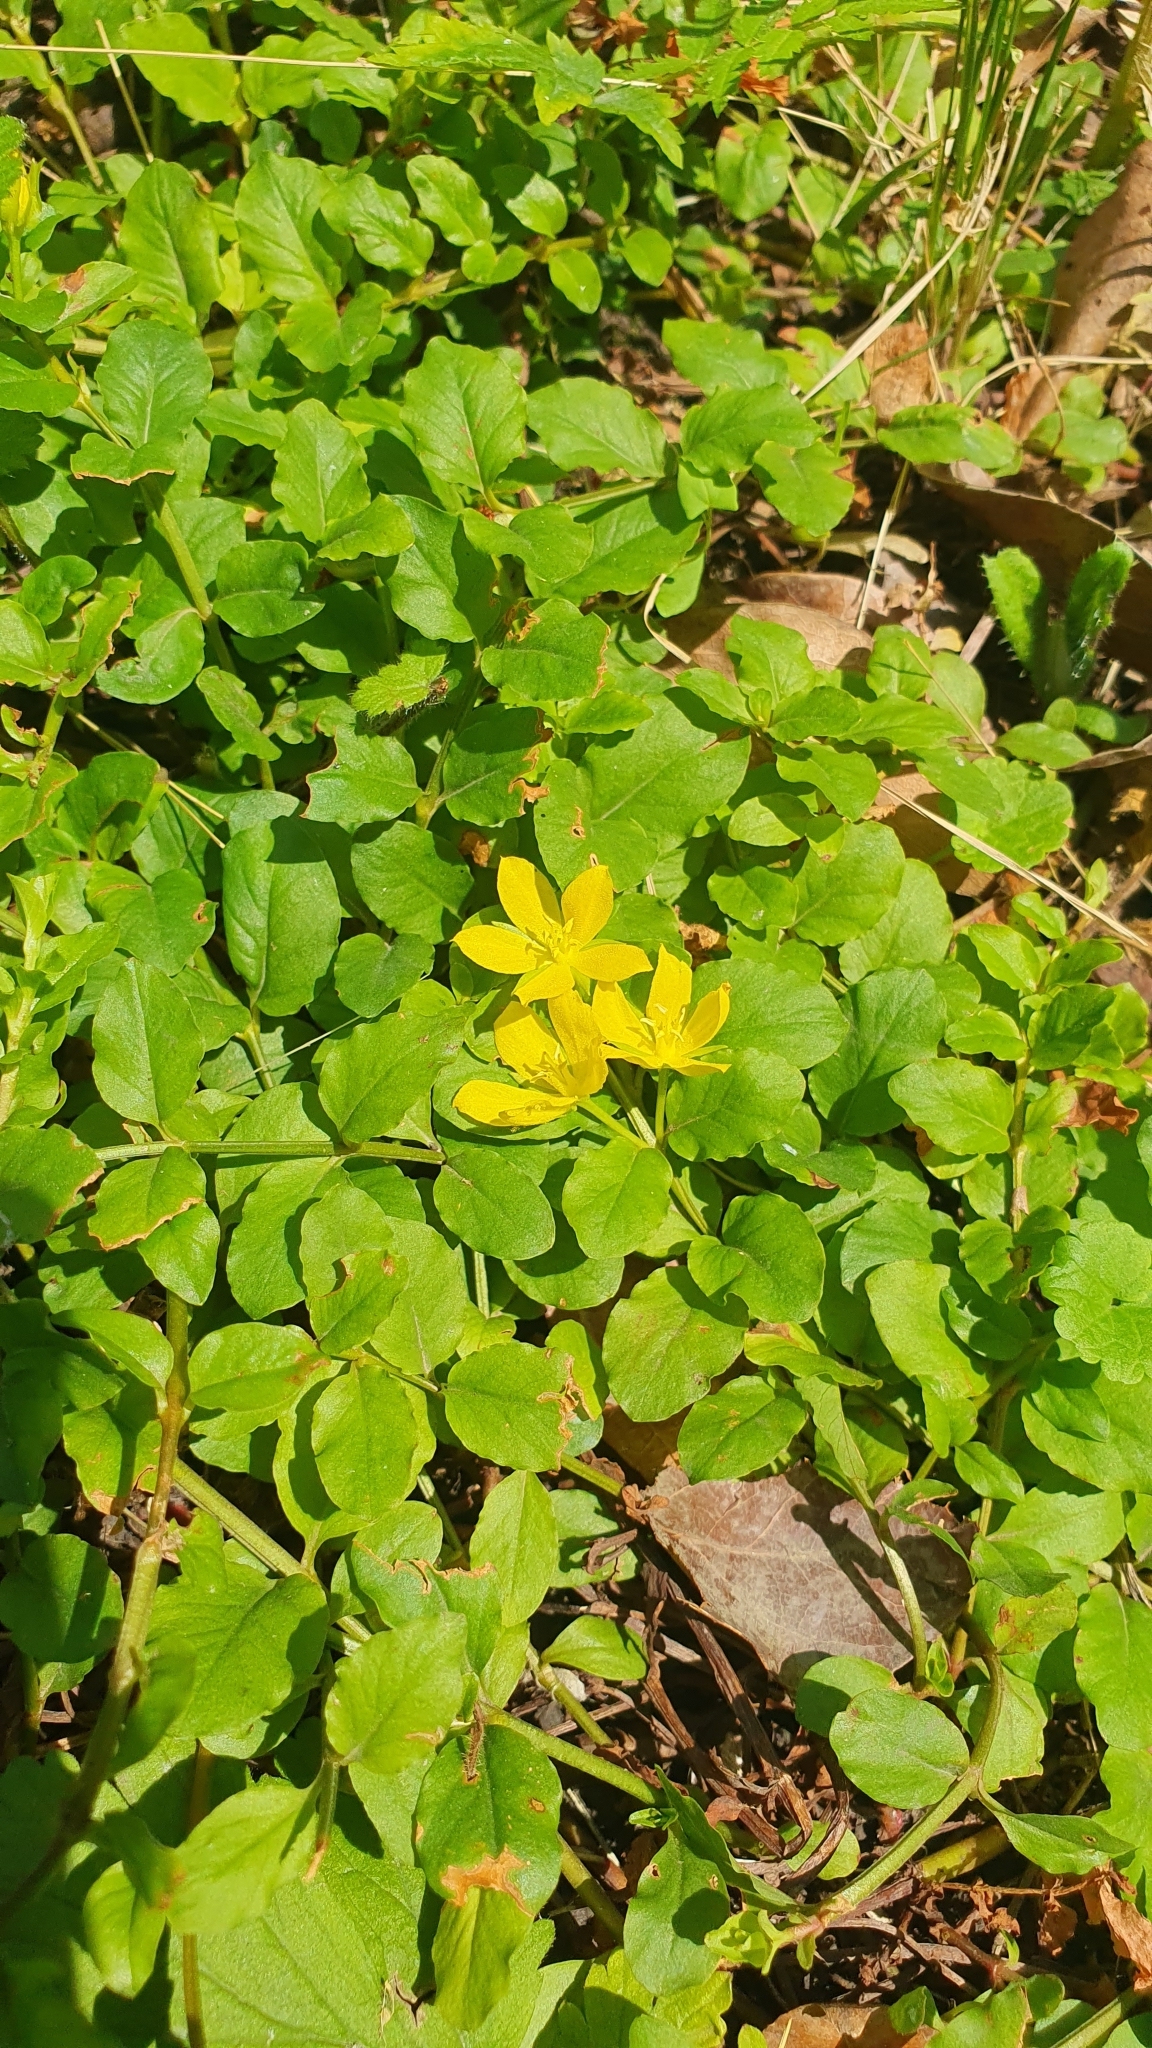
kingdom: Plantae
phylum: Tracheophyta
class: Magnoliopsida
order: Ericales
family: Primulaceae
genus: Lysimachia
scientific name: Lysimachia nummularia
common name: Moneywort
